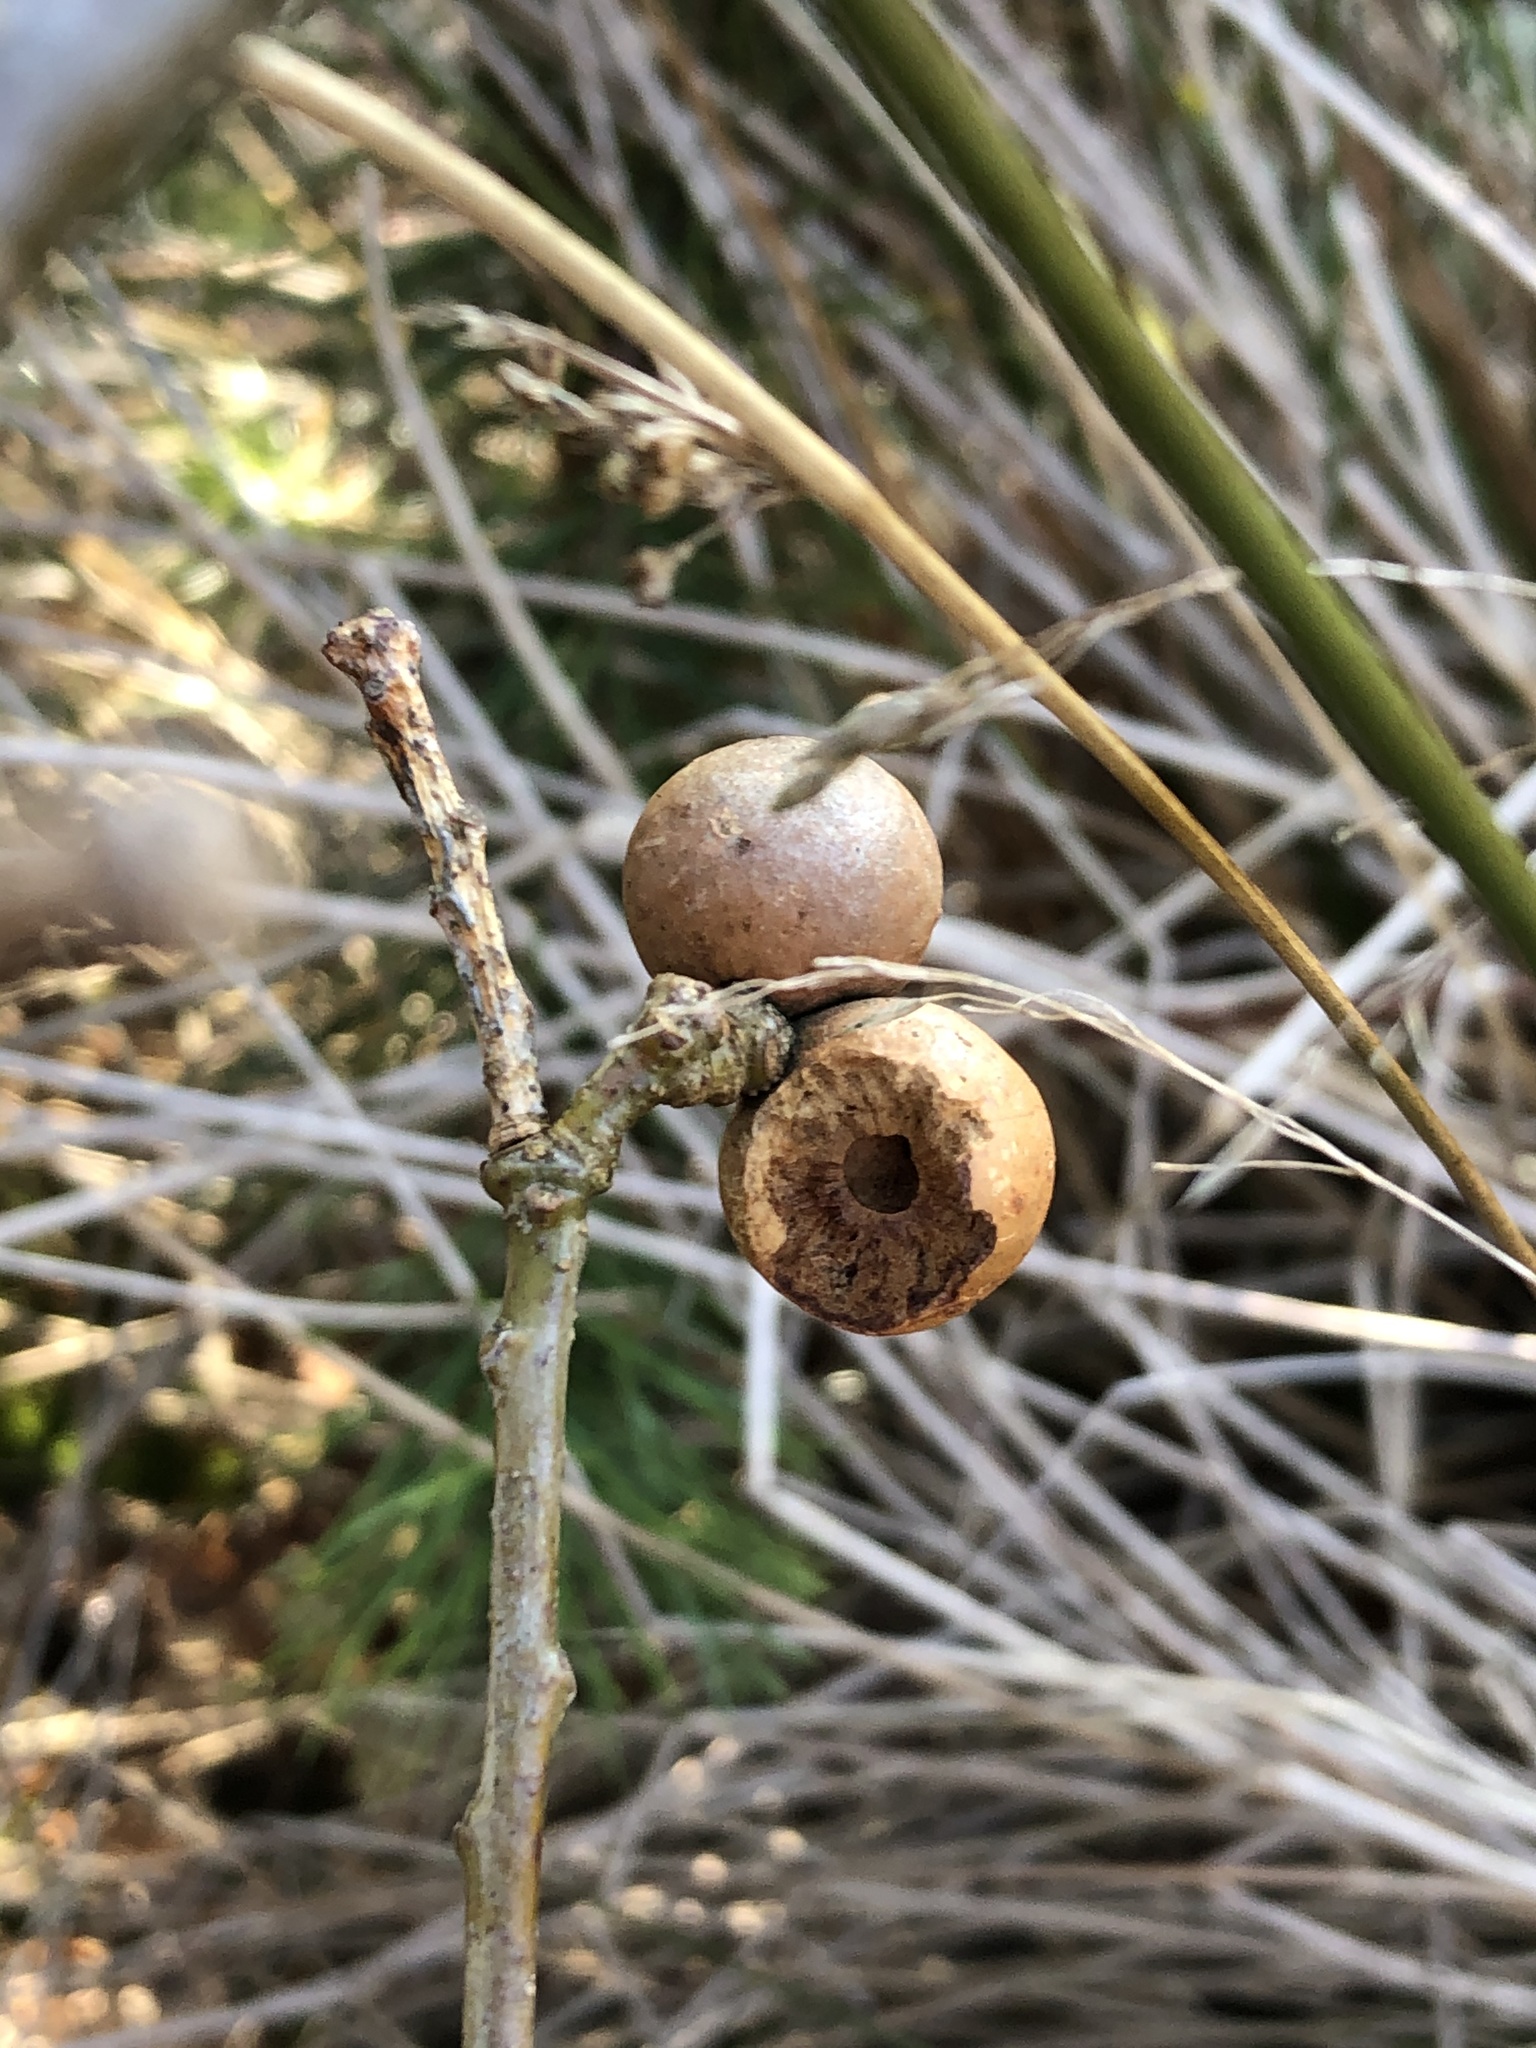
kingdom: Animalia
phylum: Arthropoda
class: Insecta
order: Hymenoptera
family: Cynipidae
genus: Andricus
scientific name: Andricus kollari
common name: Marble gall
